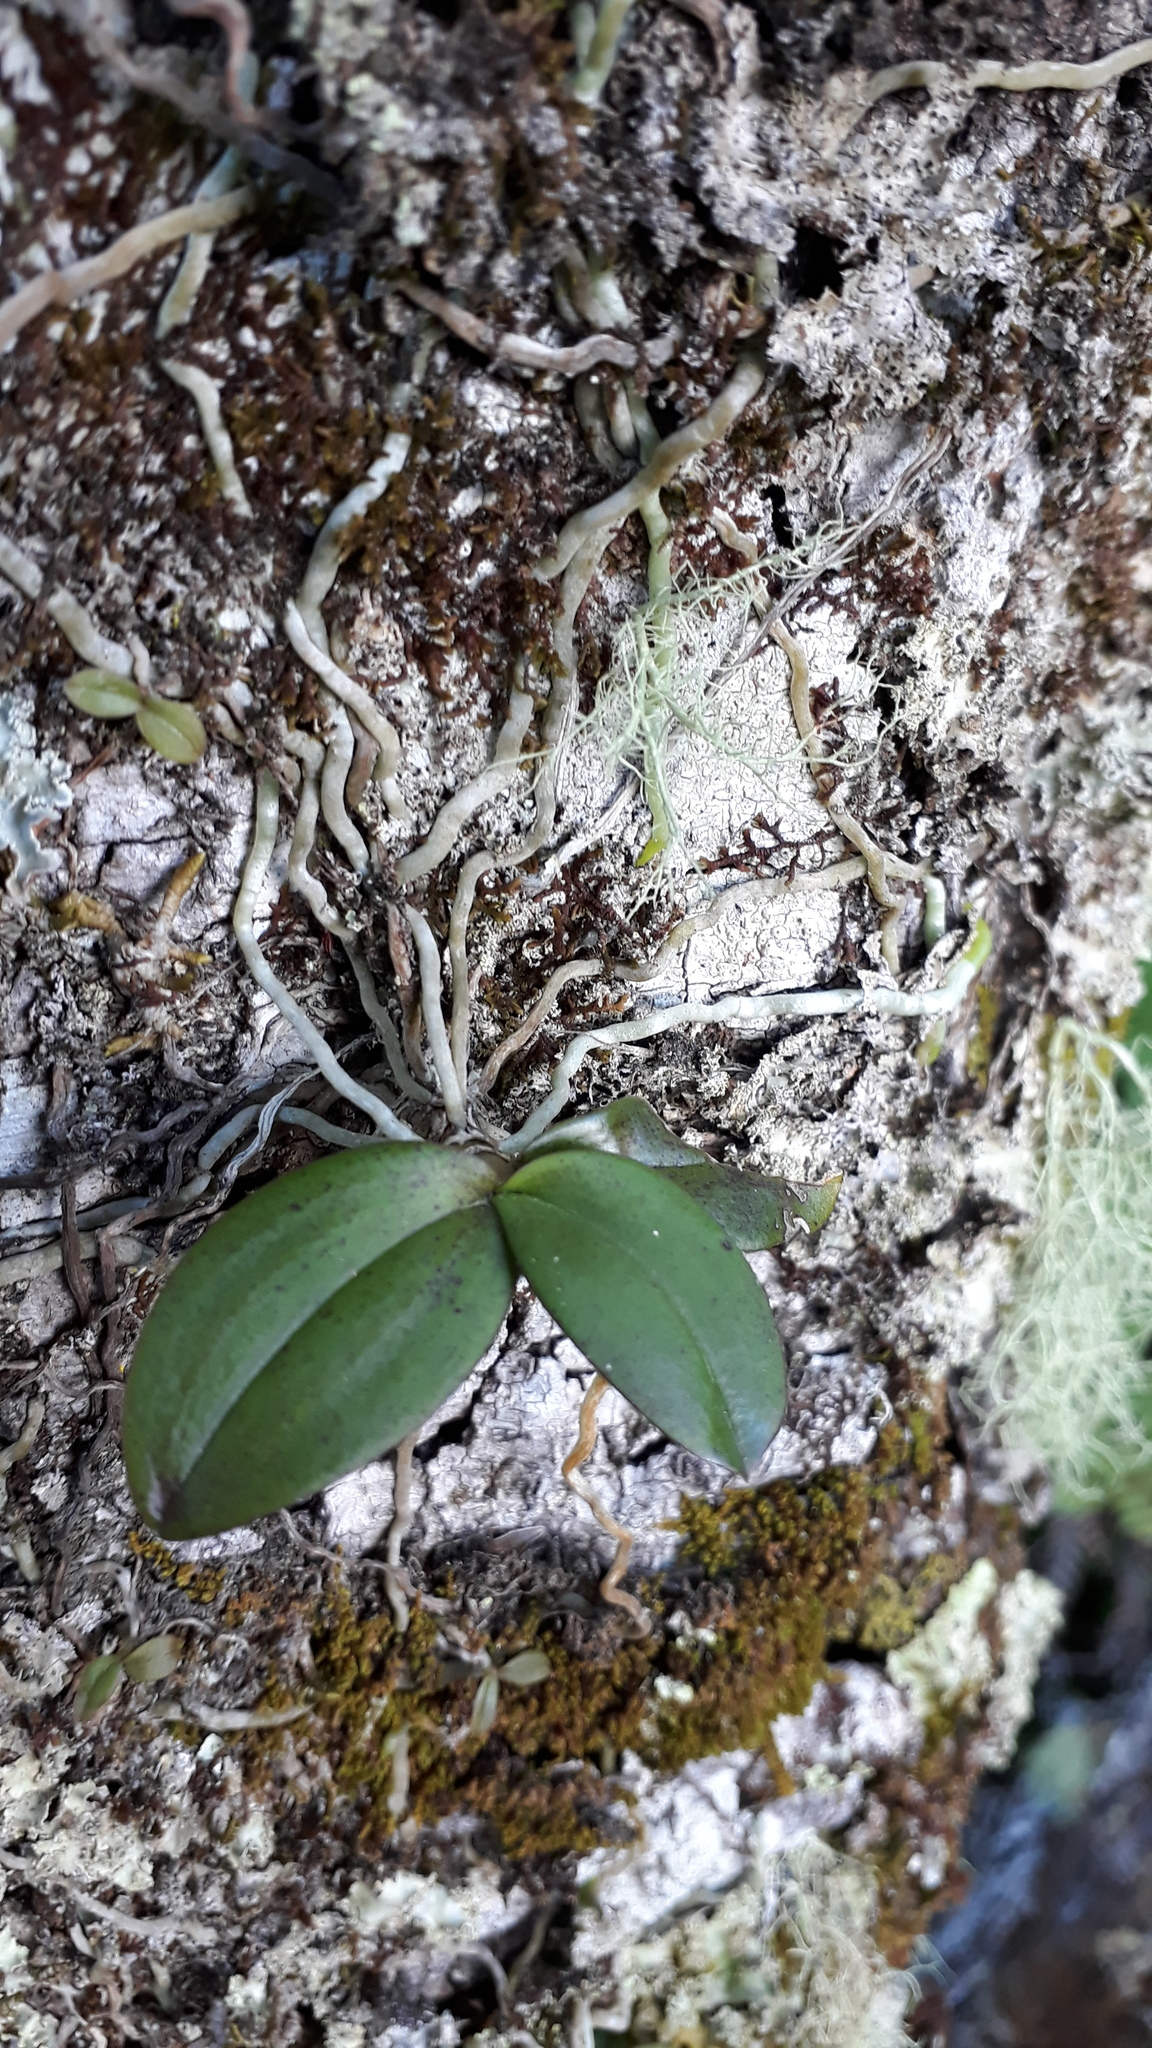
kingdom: Plantae
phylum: Tracheophyta
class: Liliopsida
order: Asparagales
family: Orchidaceae
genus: Drymoanthus
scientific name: Drymoanthus adversus
